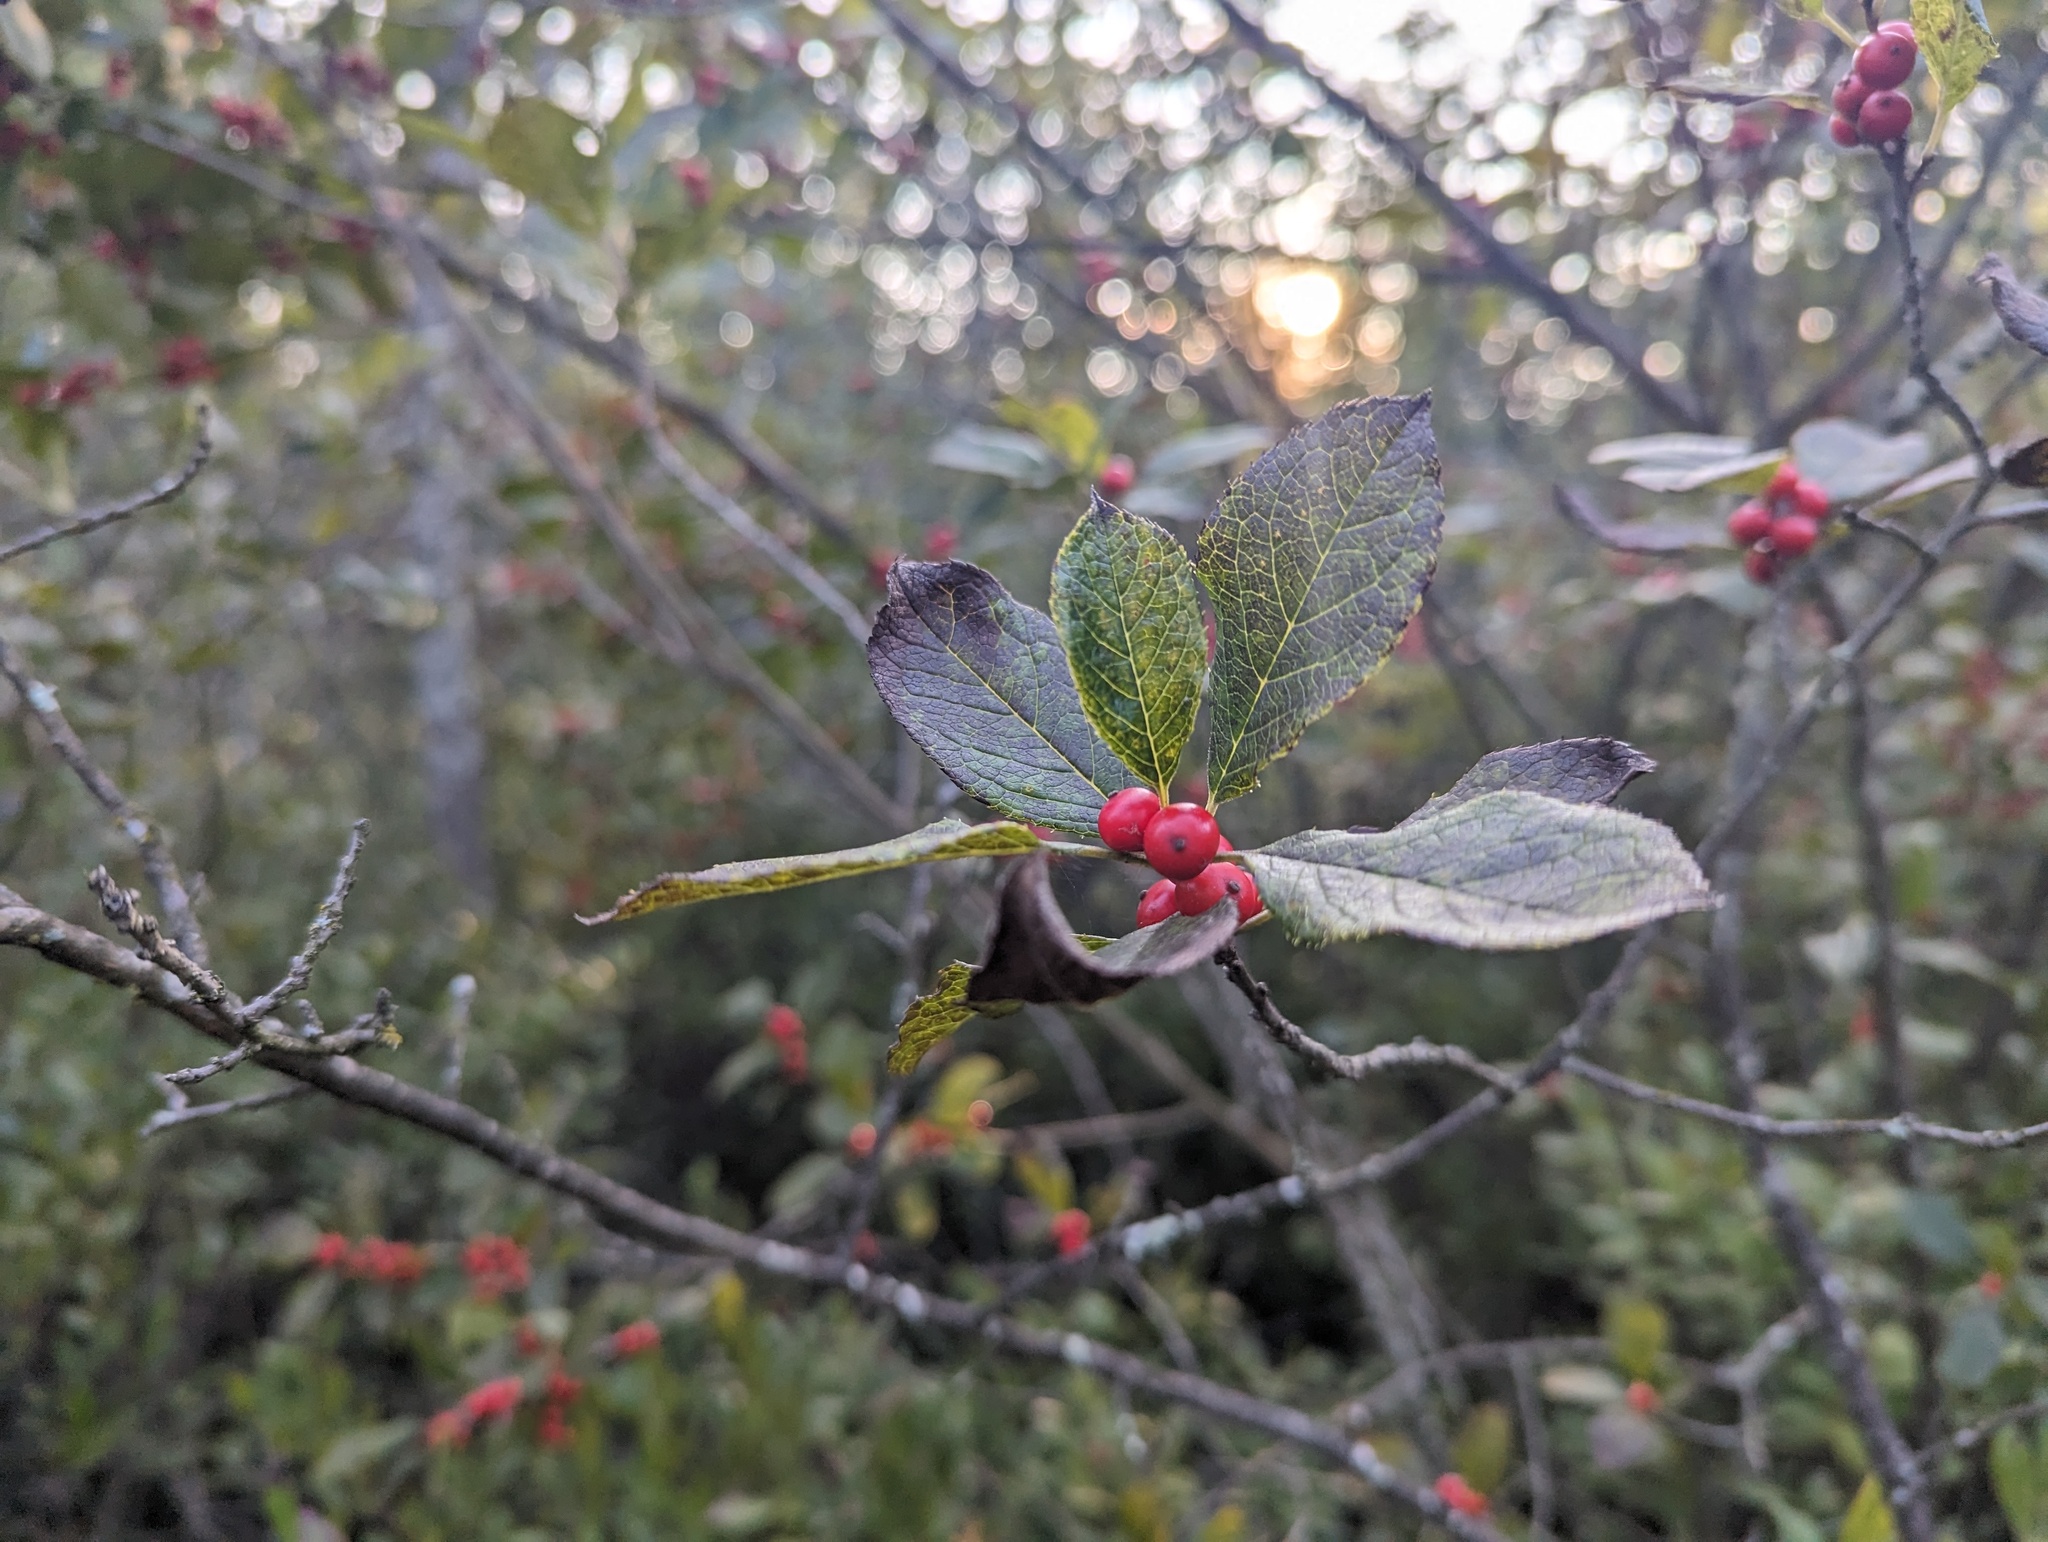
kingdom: Plantae
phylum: Tracheophyta
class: Magnoliopsida
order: Aquifoliales
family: Aquifoliaceae
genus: Ilex
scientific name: Ilex verticillata
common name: Virginia winterberry
